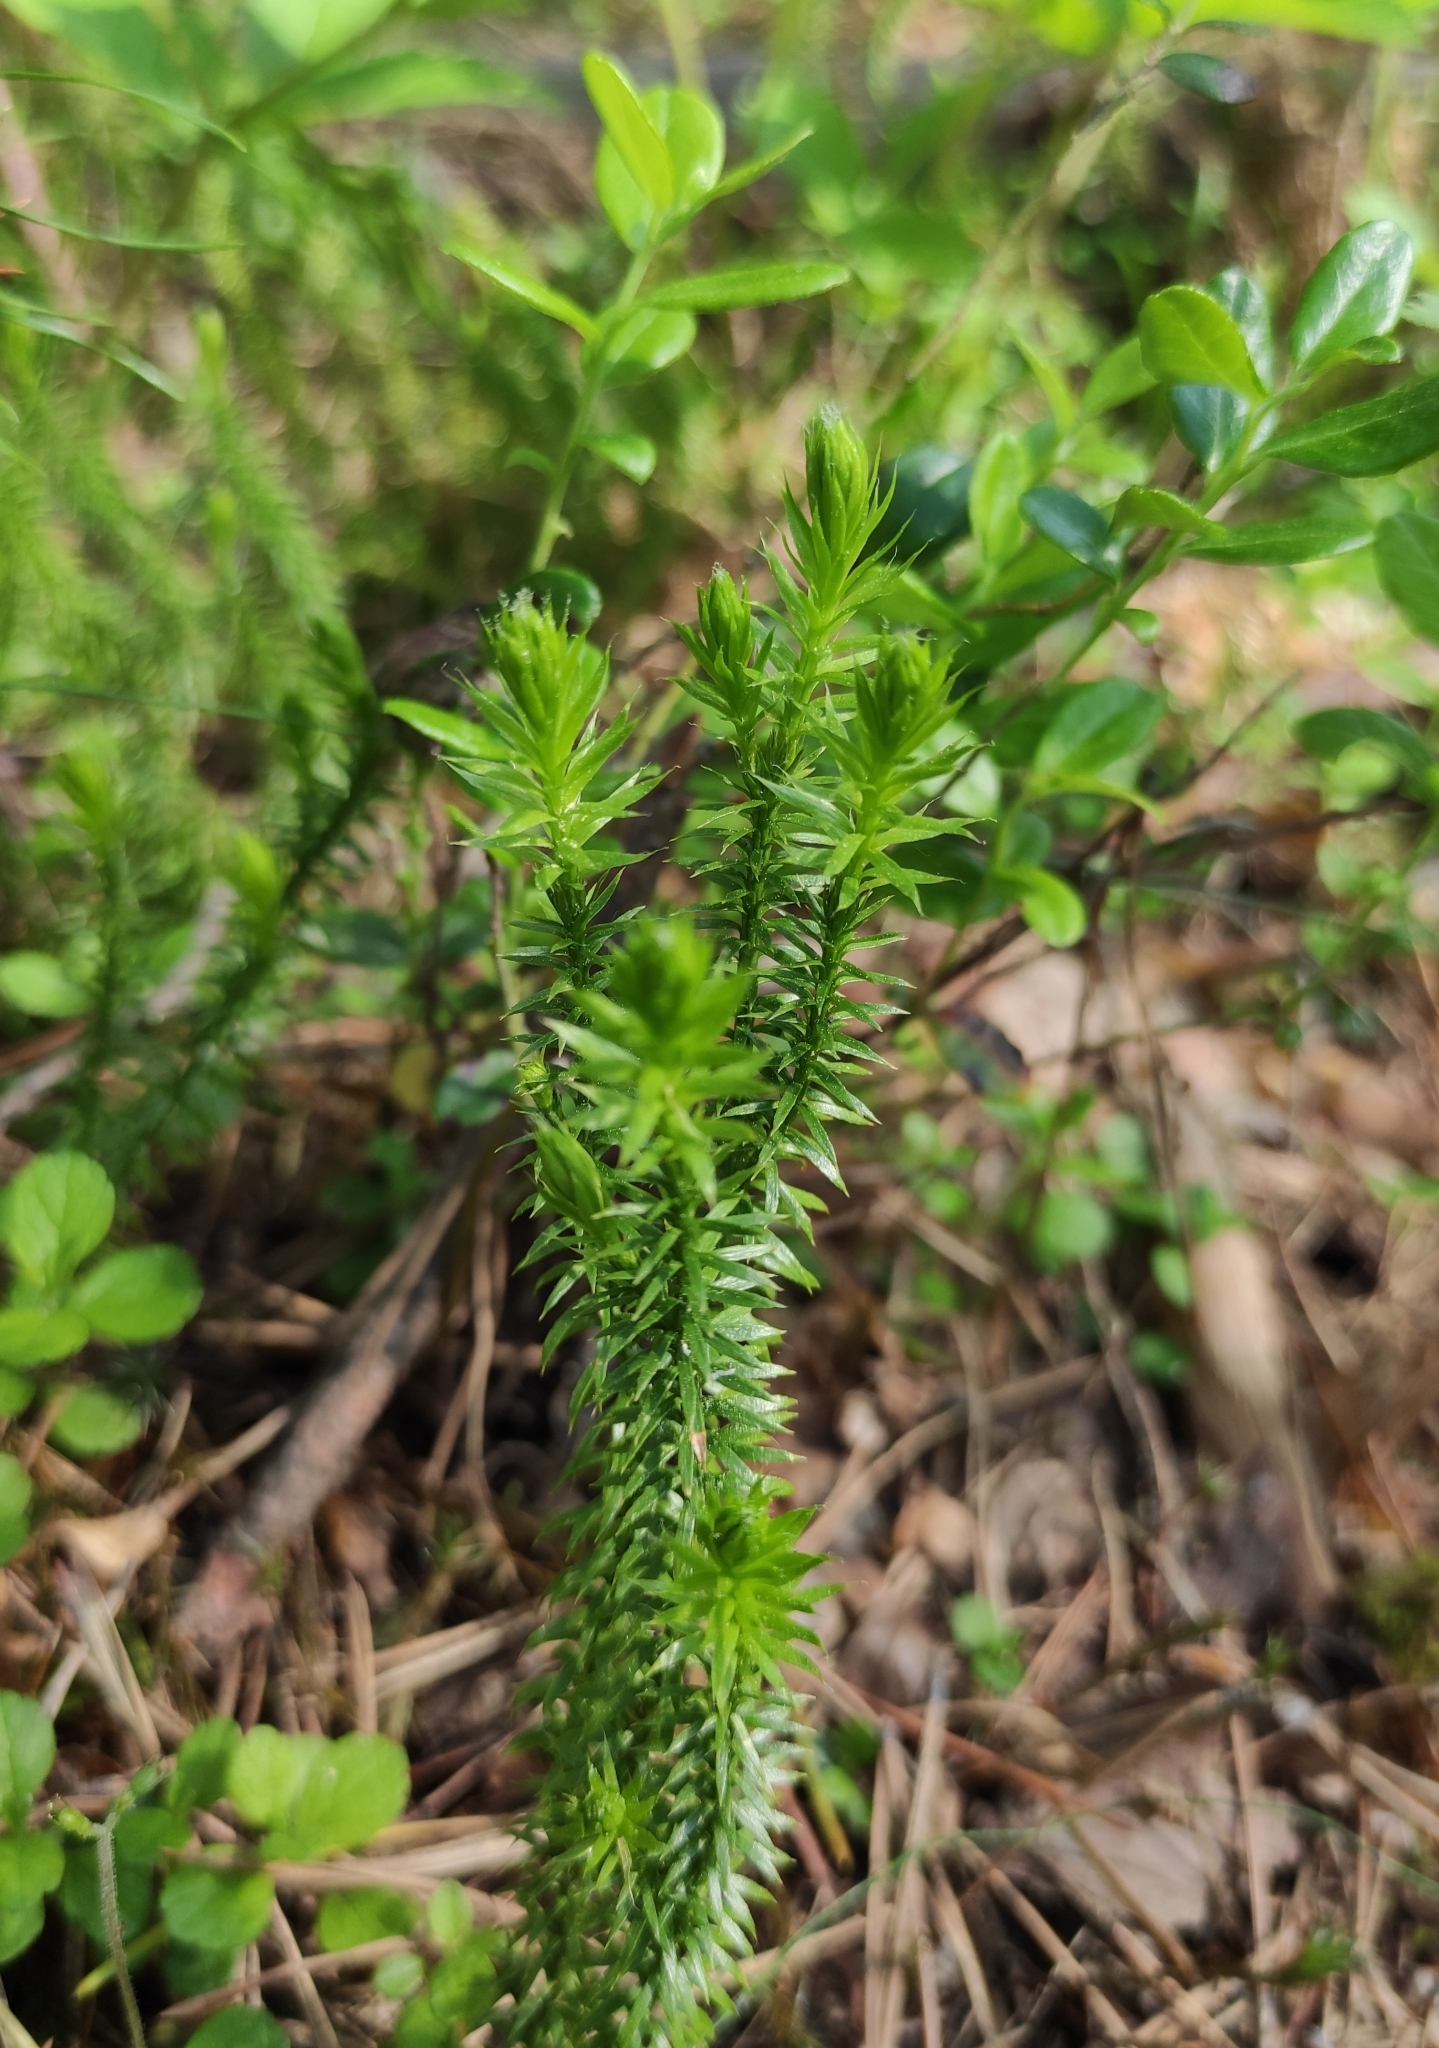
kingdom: Plantae
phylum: Tracheophyta
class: Lycopodiopsida
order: Lycopodiales
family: Lycopodiaceae
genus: Spinulum
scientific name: Spinulum annotinum
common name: Interrupted club-moss
